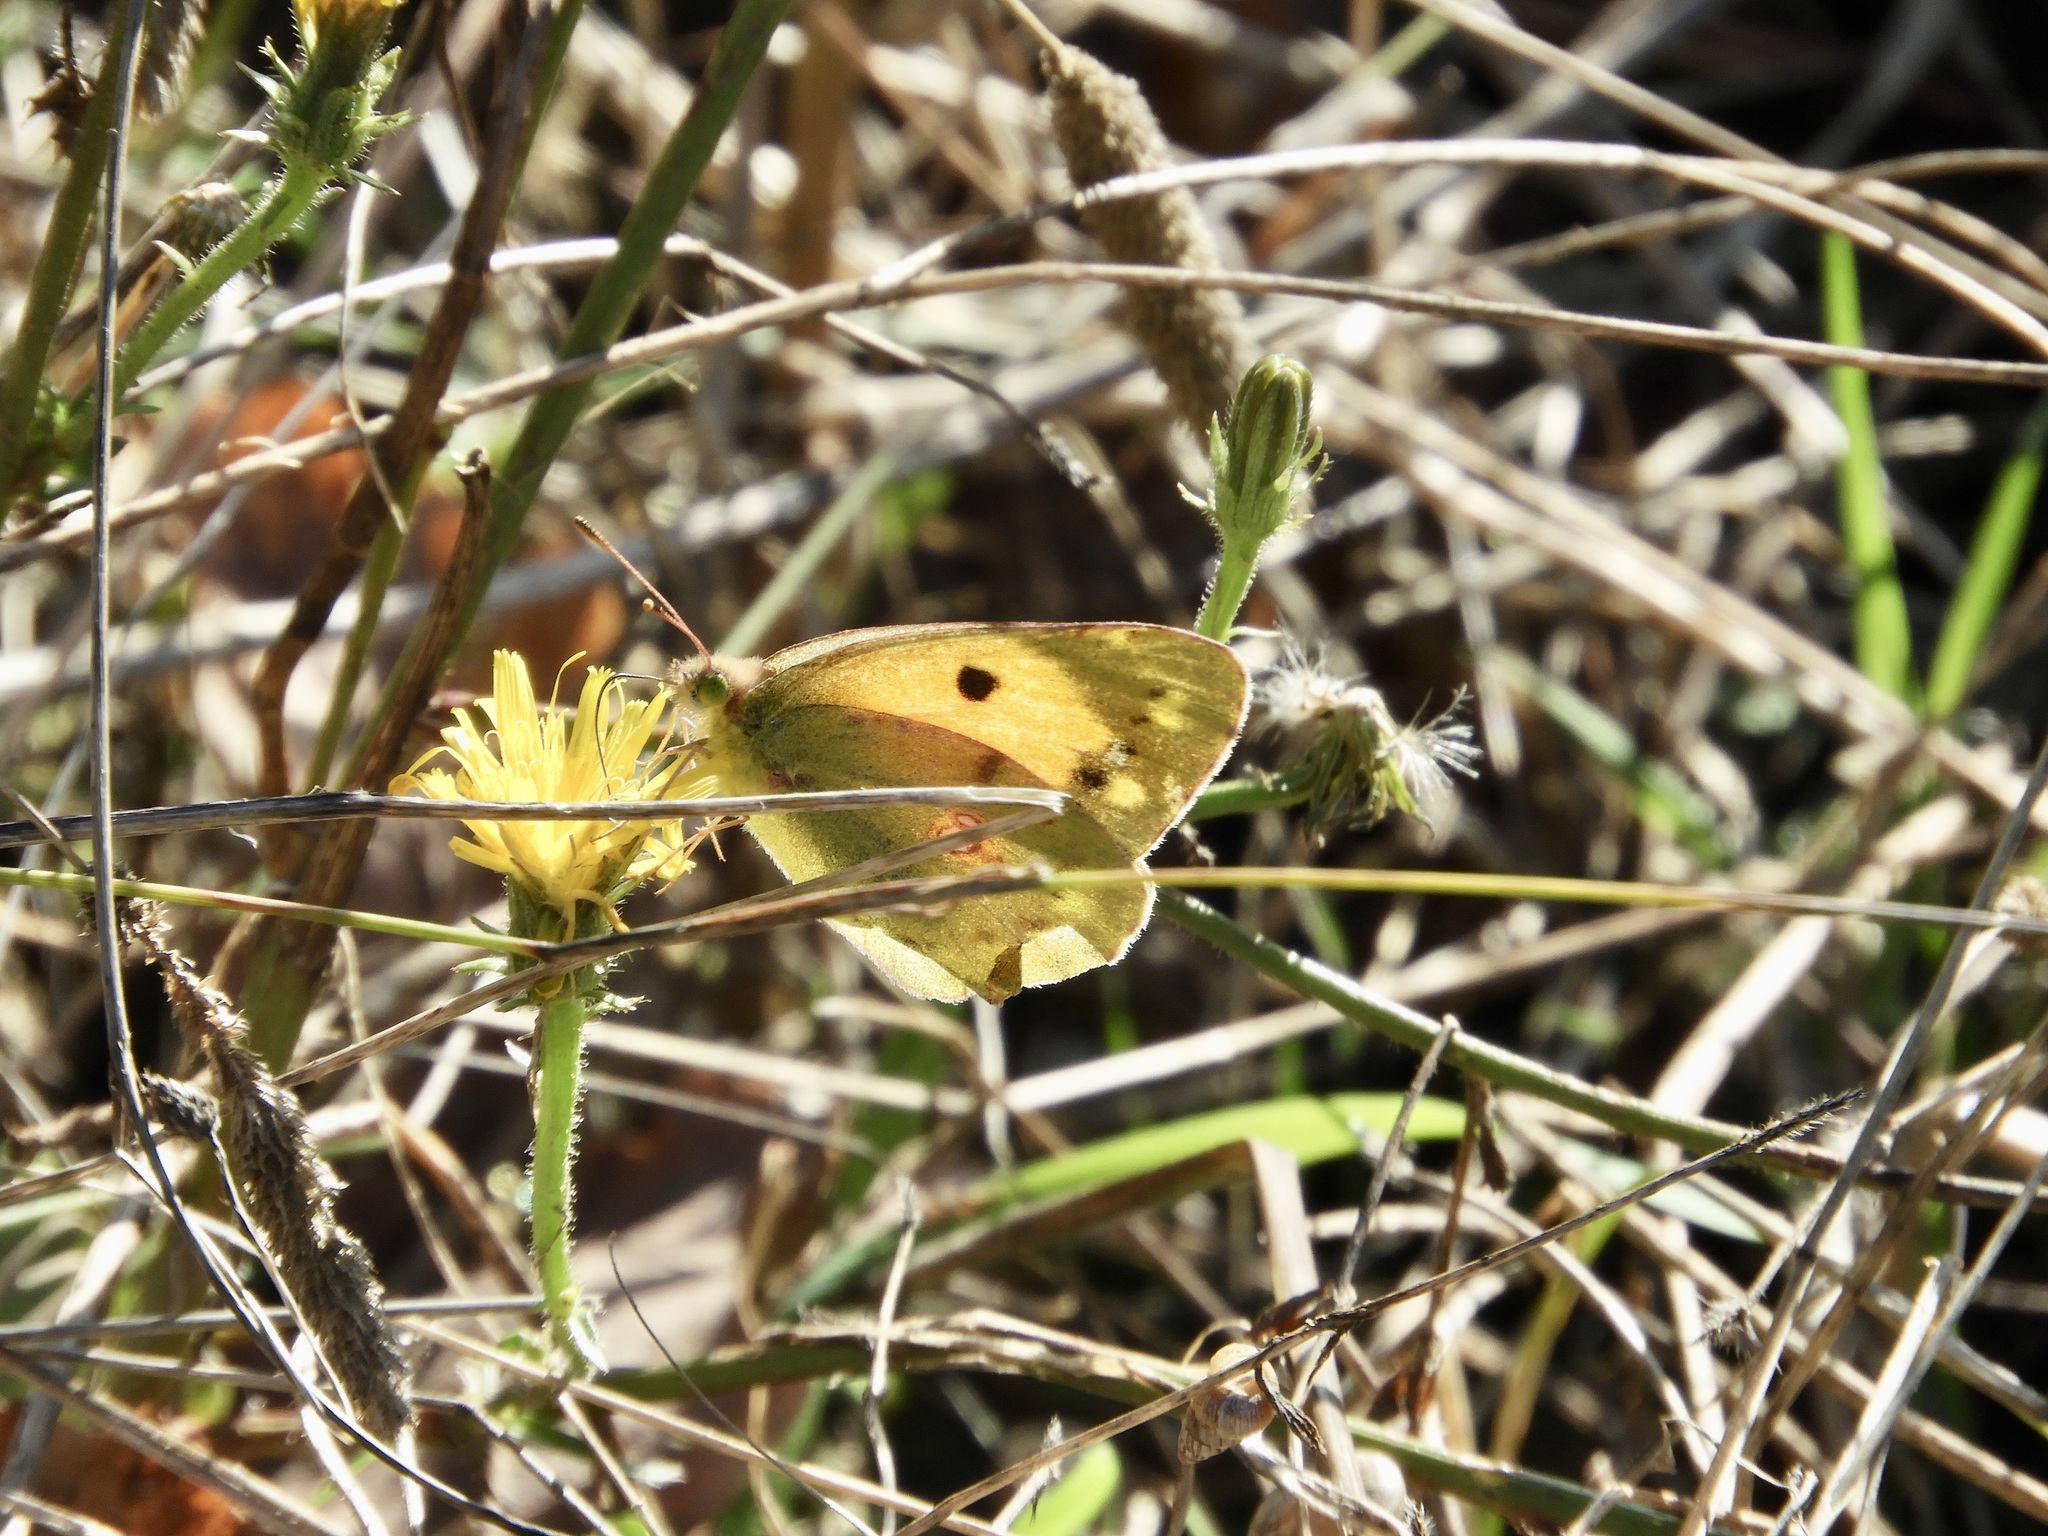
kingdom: Animalia
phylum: Arthropoda
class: Insecta
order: Lepidoptera
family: Pieridae
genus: Colias
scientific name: Colias croceus
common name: Clouded yellow
